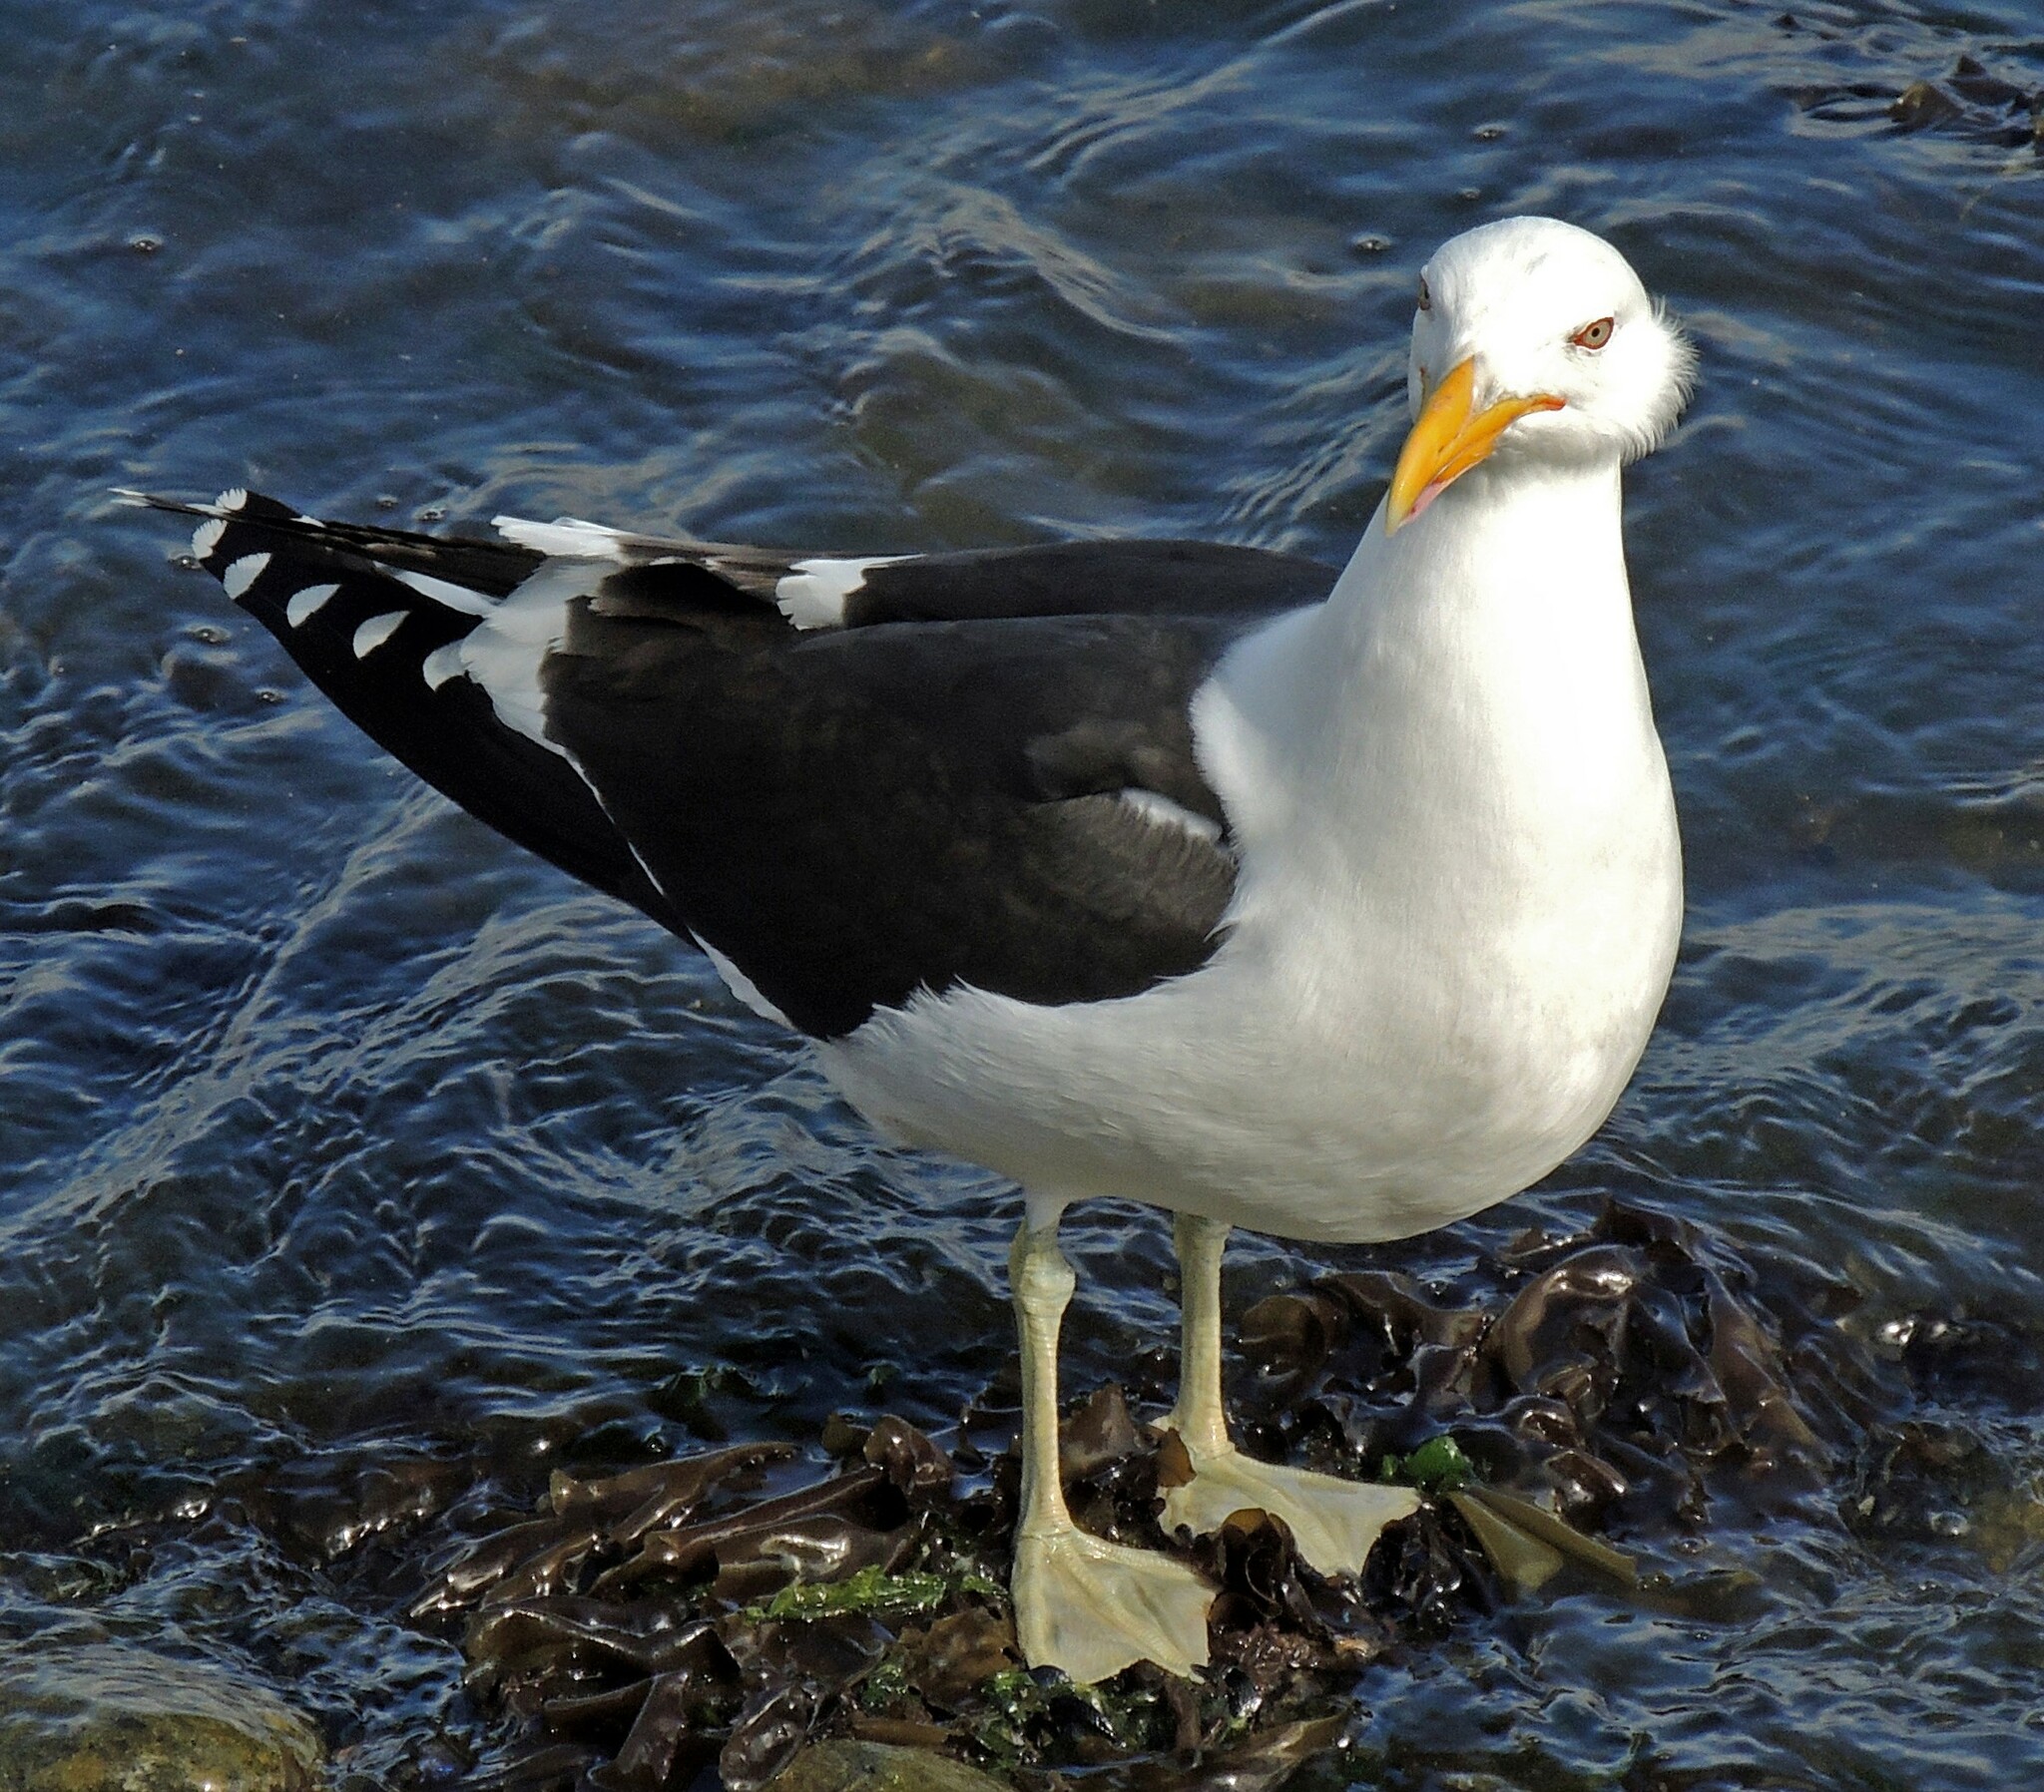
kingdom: Animalia
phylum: Chordata
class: Aves
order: Charadriiformes
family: Laridae
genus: Larus
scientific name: Larus dominicanus
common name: Kelp gull
